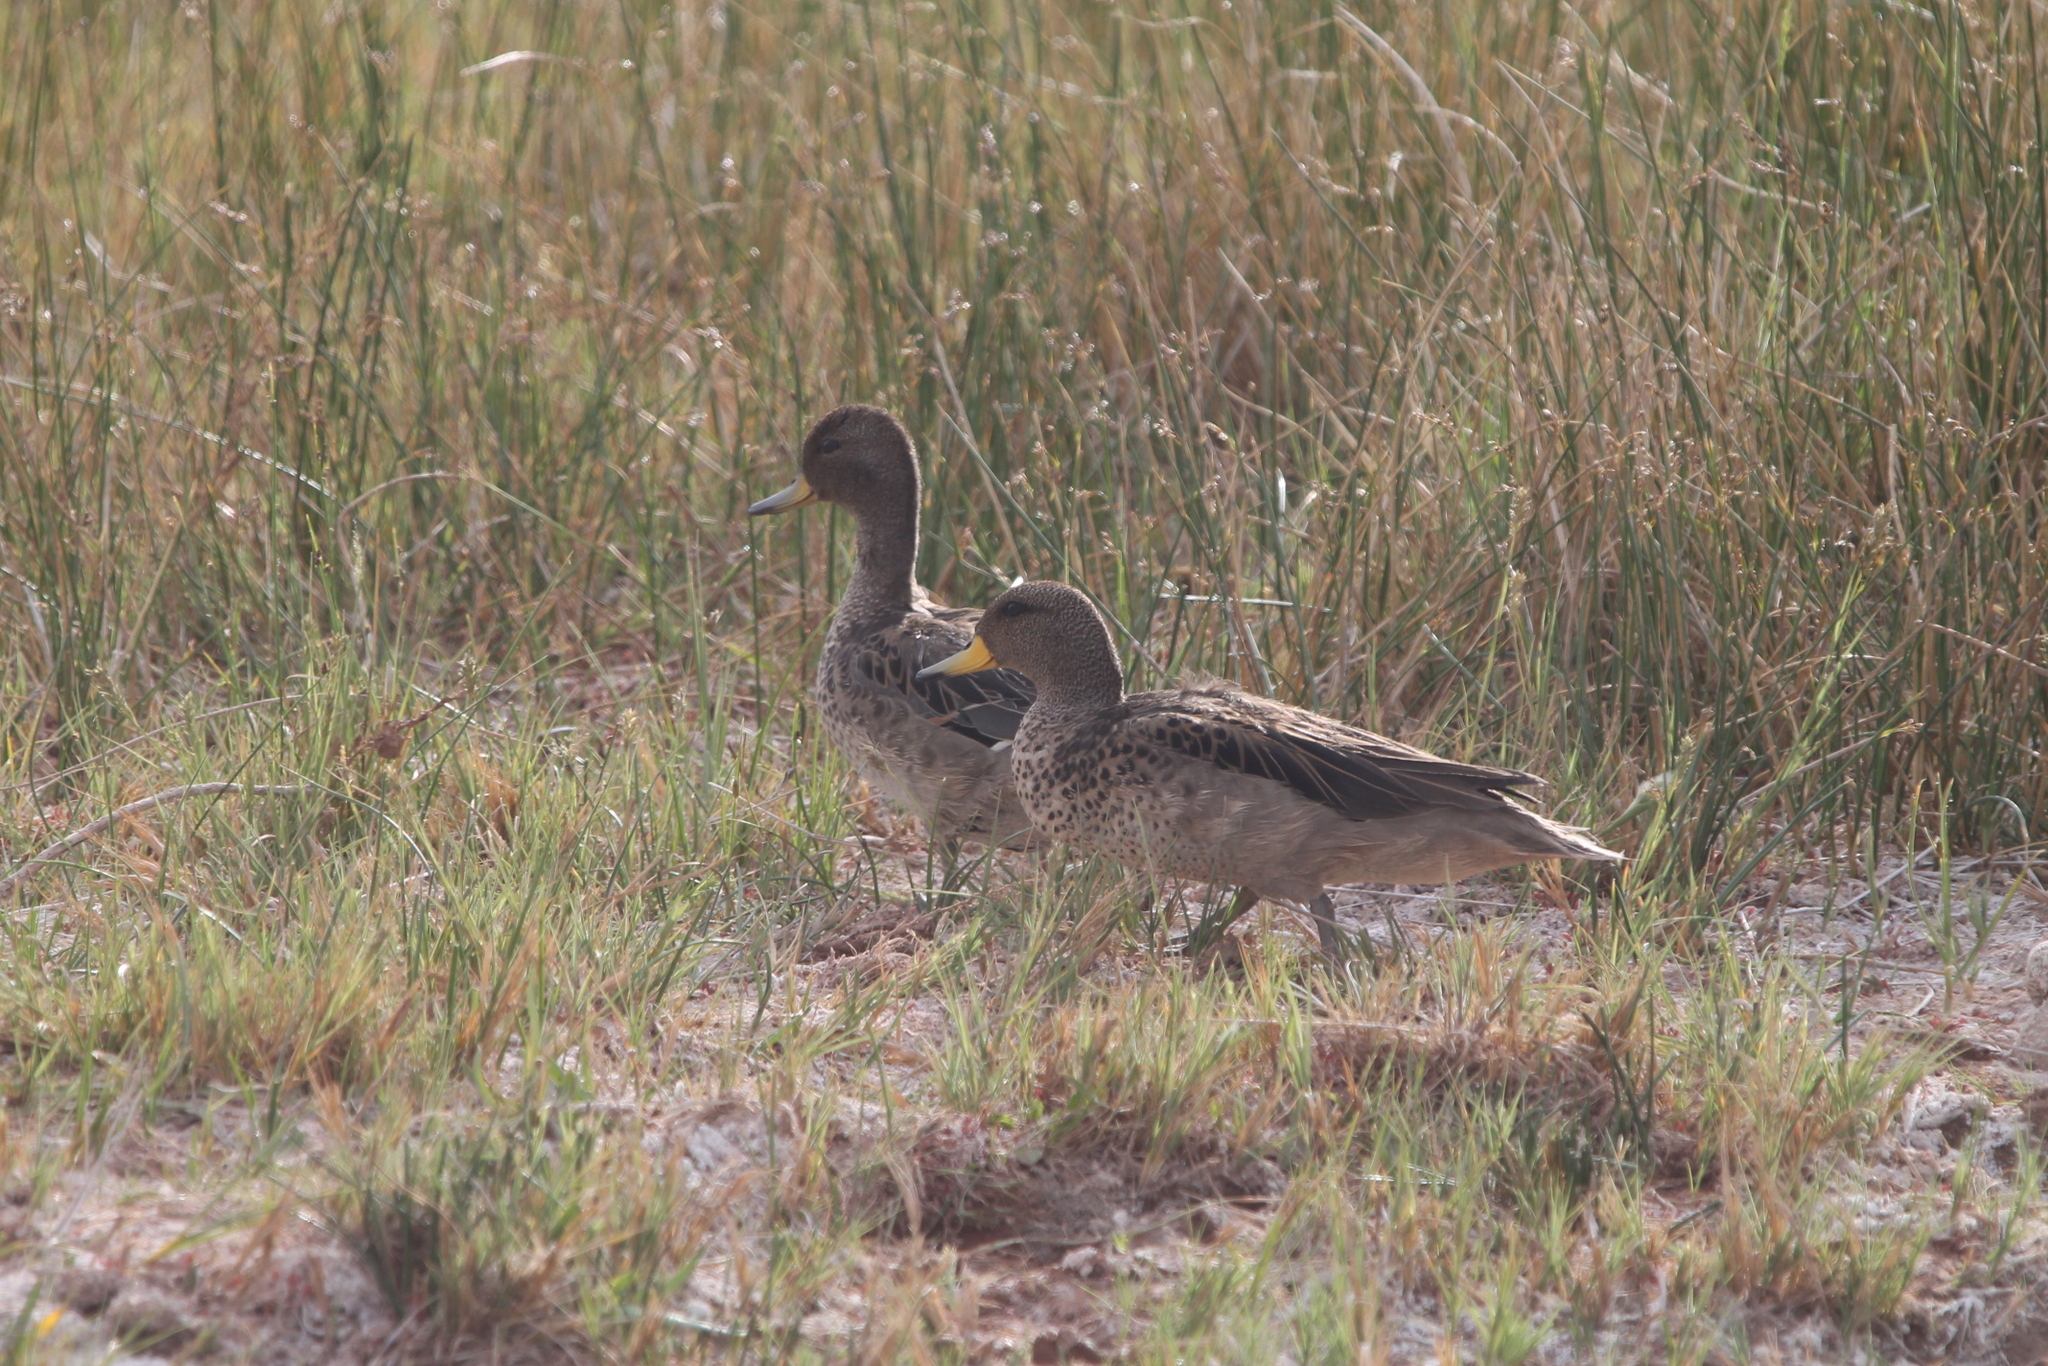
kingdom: Animalia
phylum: Chordata
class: Aves
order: Anseriformes
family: Anatidae
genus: Anas
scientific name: Anas flavirostris
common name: Yellow-billed teal
